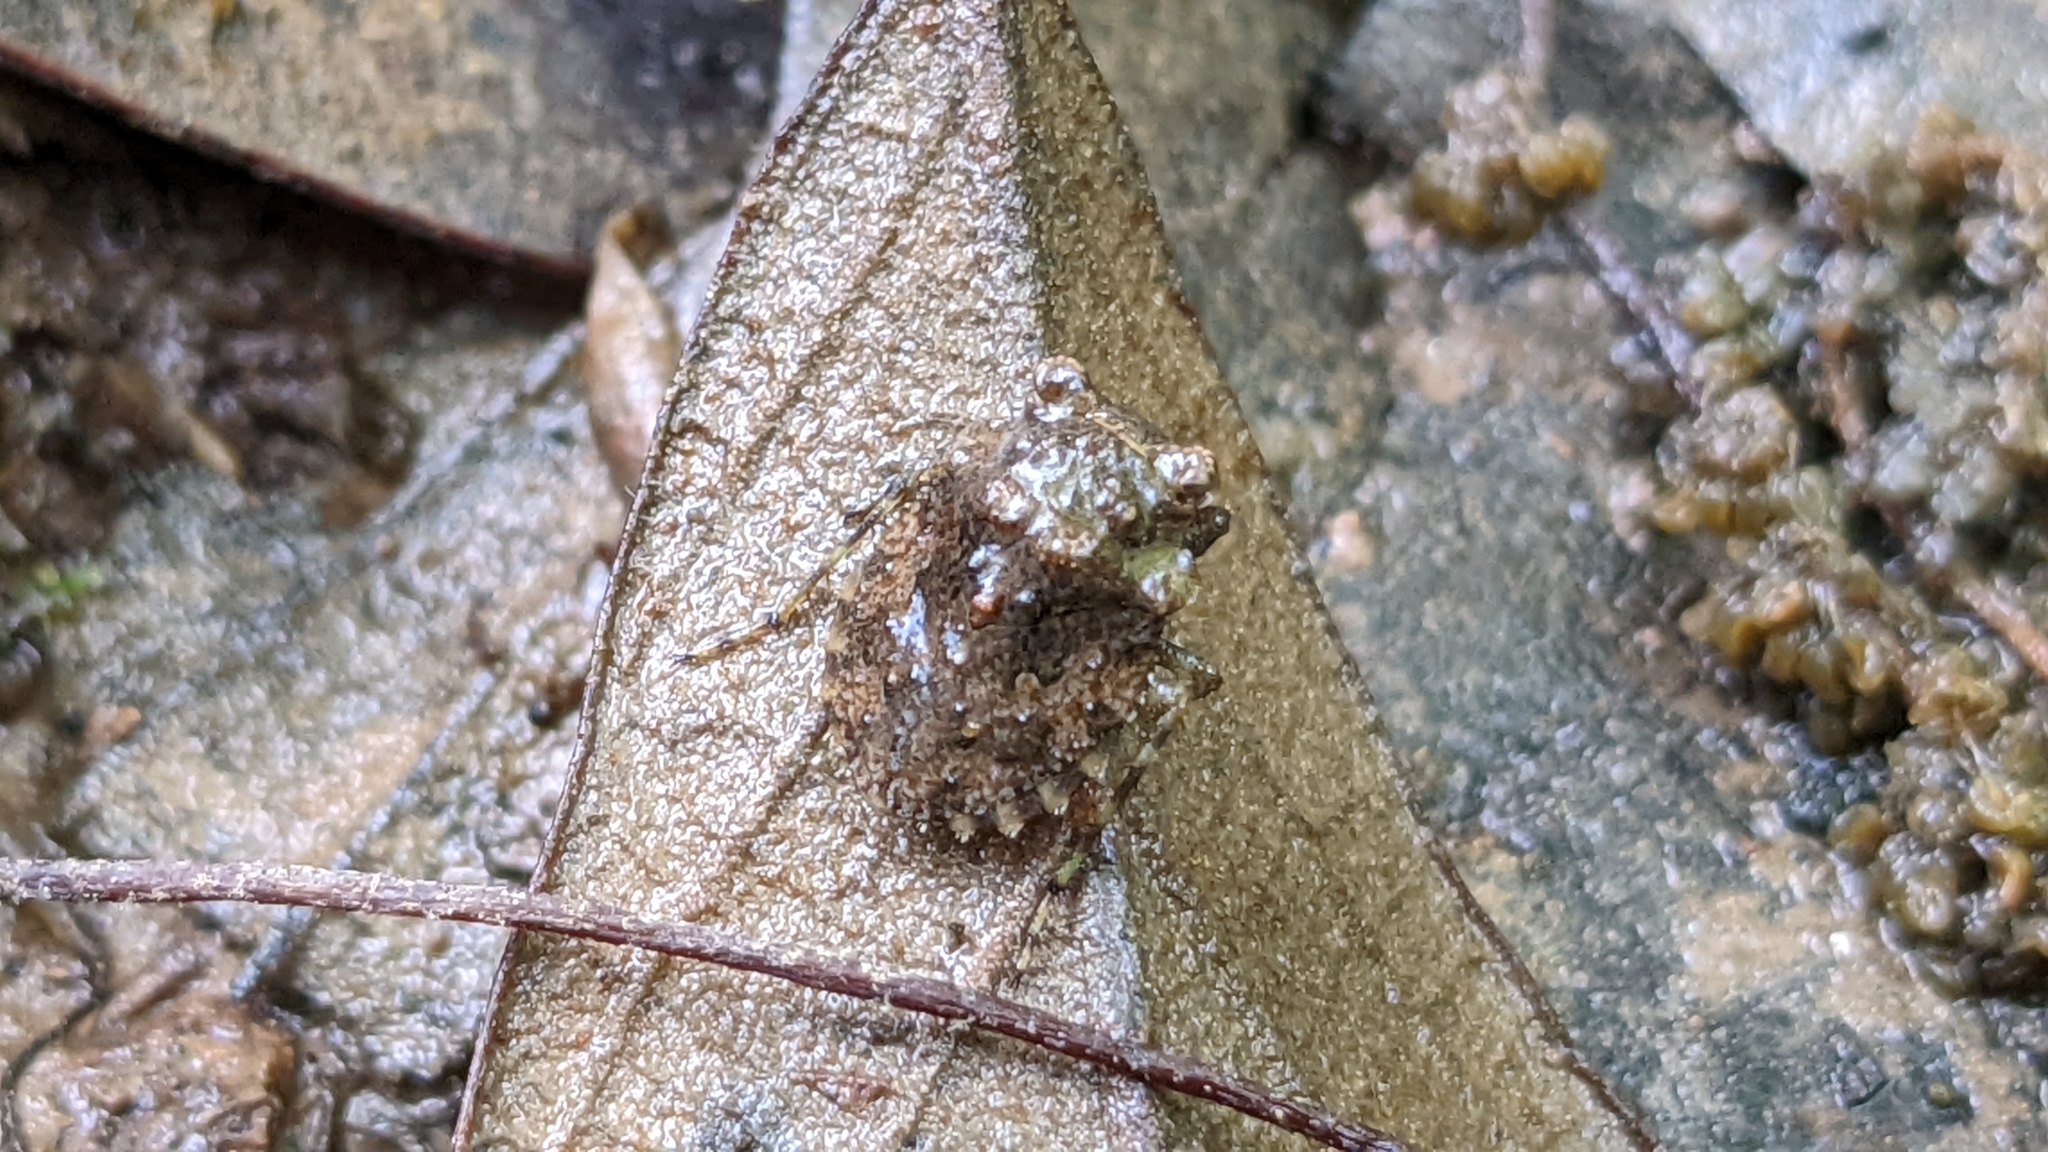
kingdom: Animalia
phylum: Arthropoda
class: Insecta
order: Hemiptera
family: Gelastocoridae
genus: Gelastocoris
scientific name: Gelastocoris oculatus
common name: Toad bug
